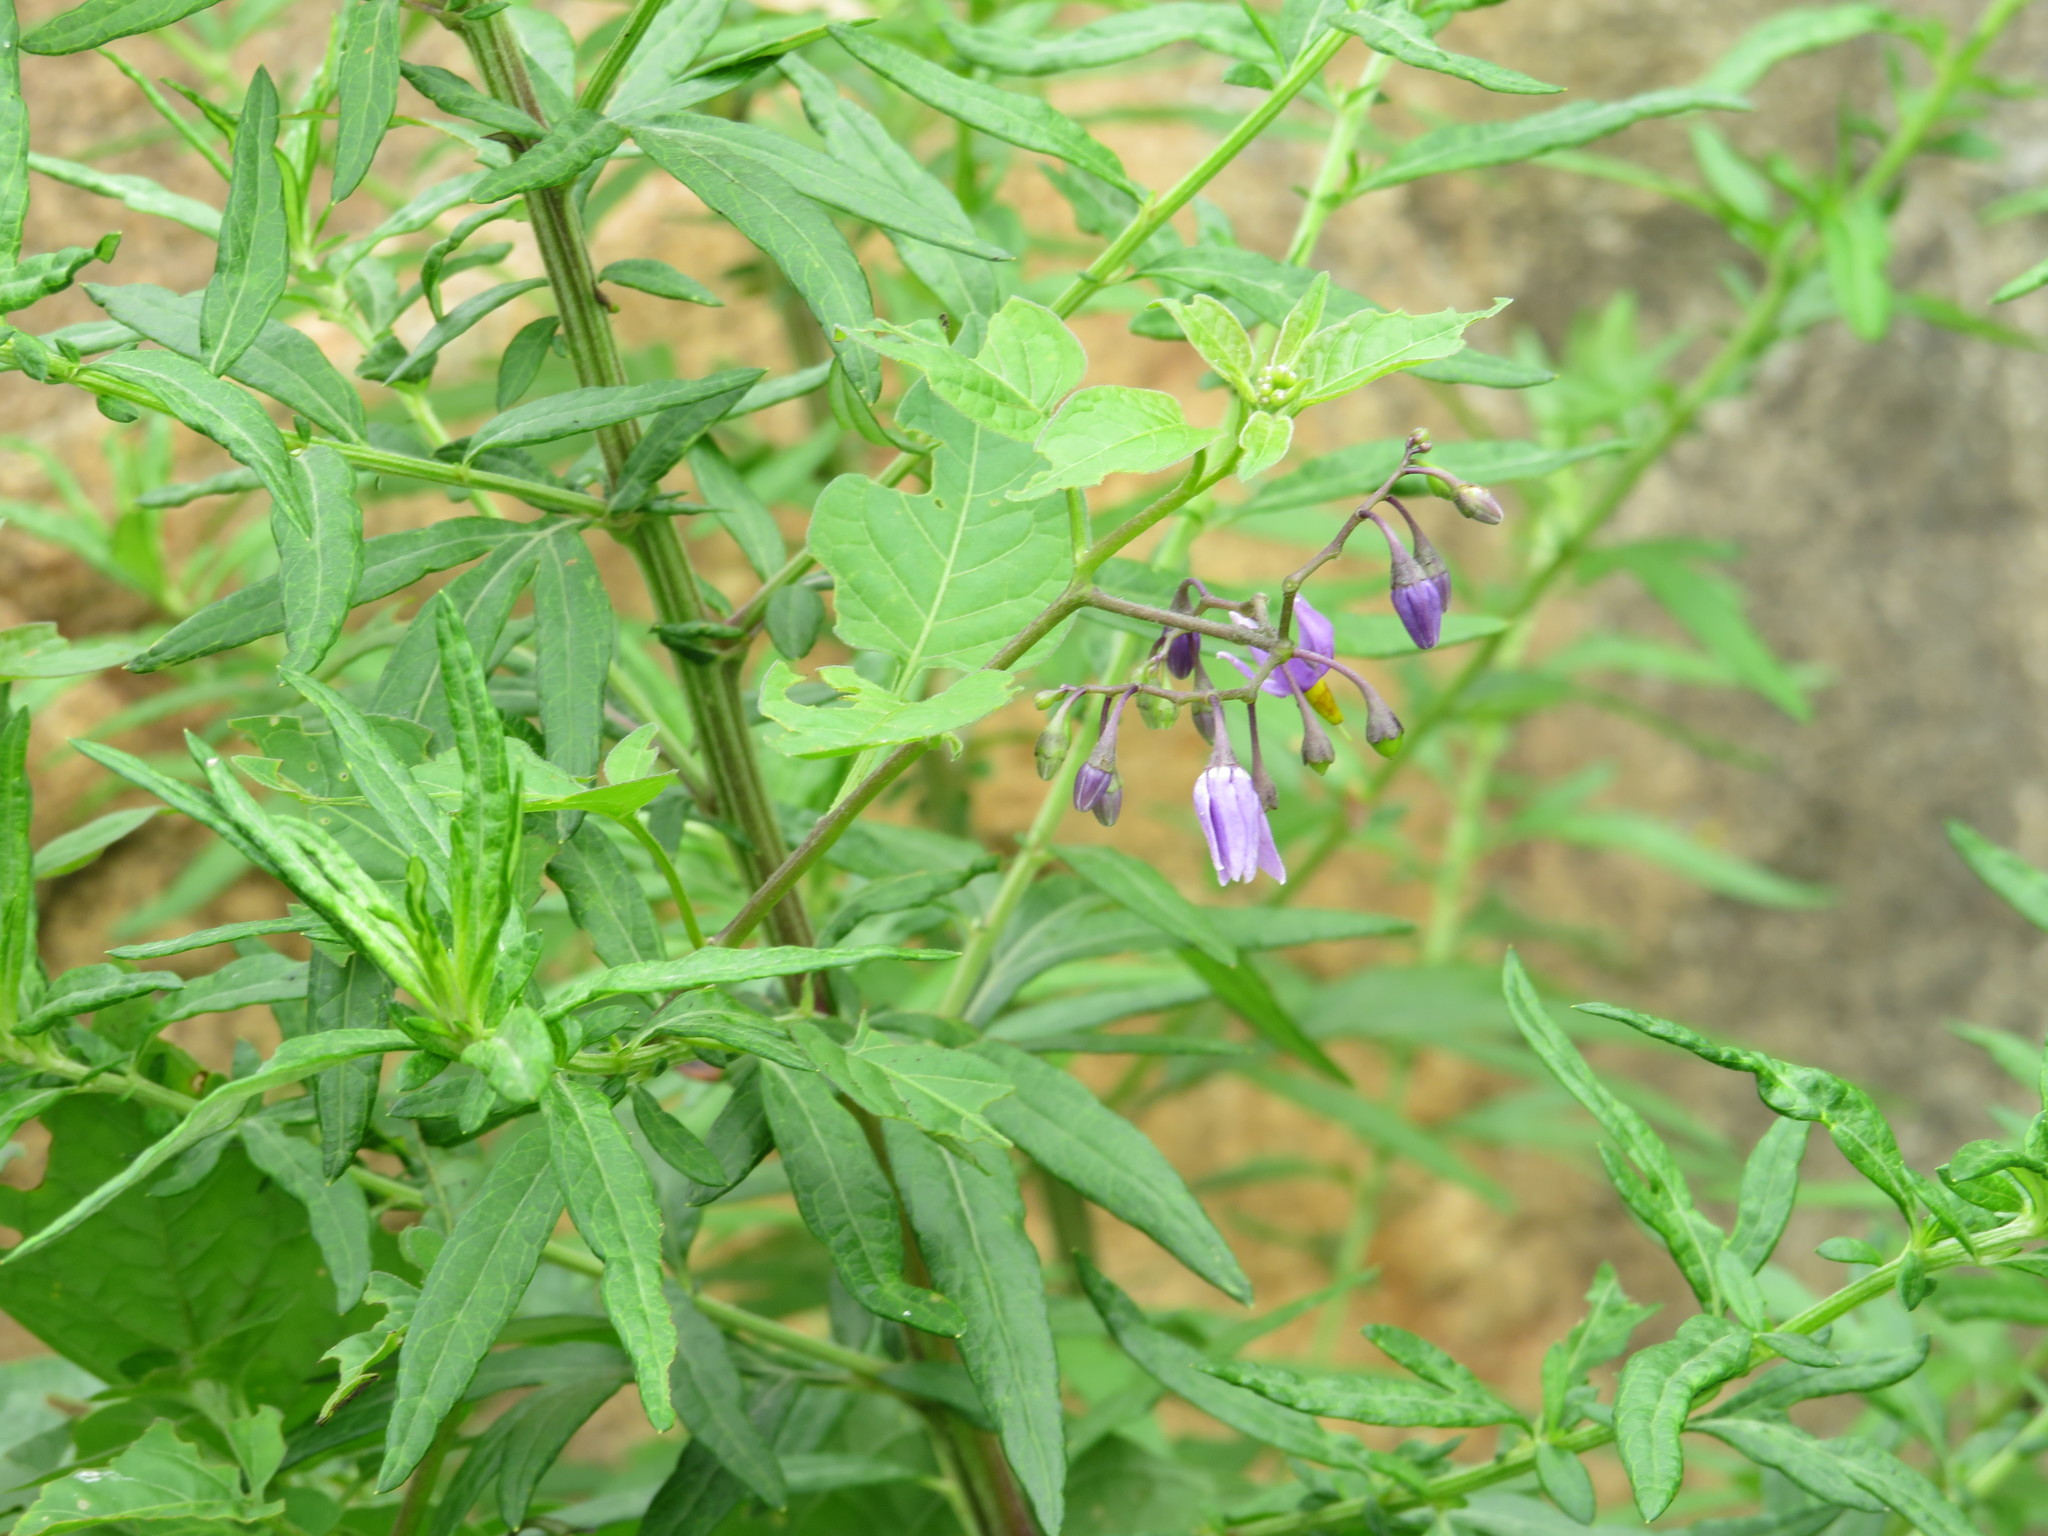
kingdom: Plantae
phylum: Tracheophyta
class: Magnoliopsida
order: Solanales
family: Solanaceae
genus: Solanum
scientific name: Solanum dulcamara
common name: Climbing nightshade
